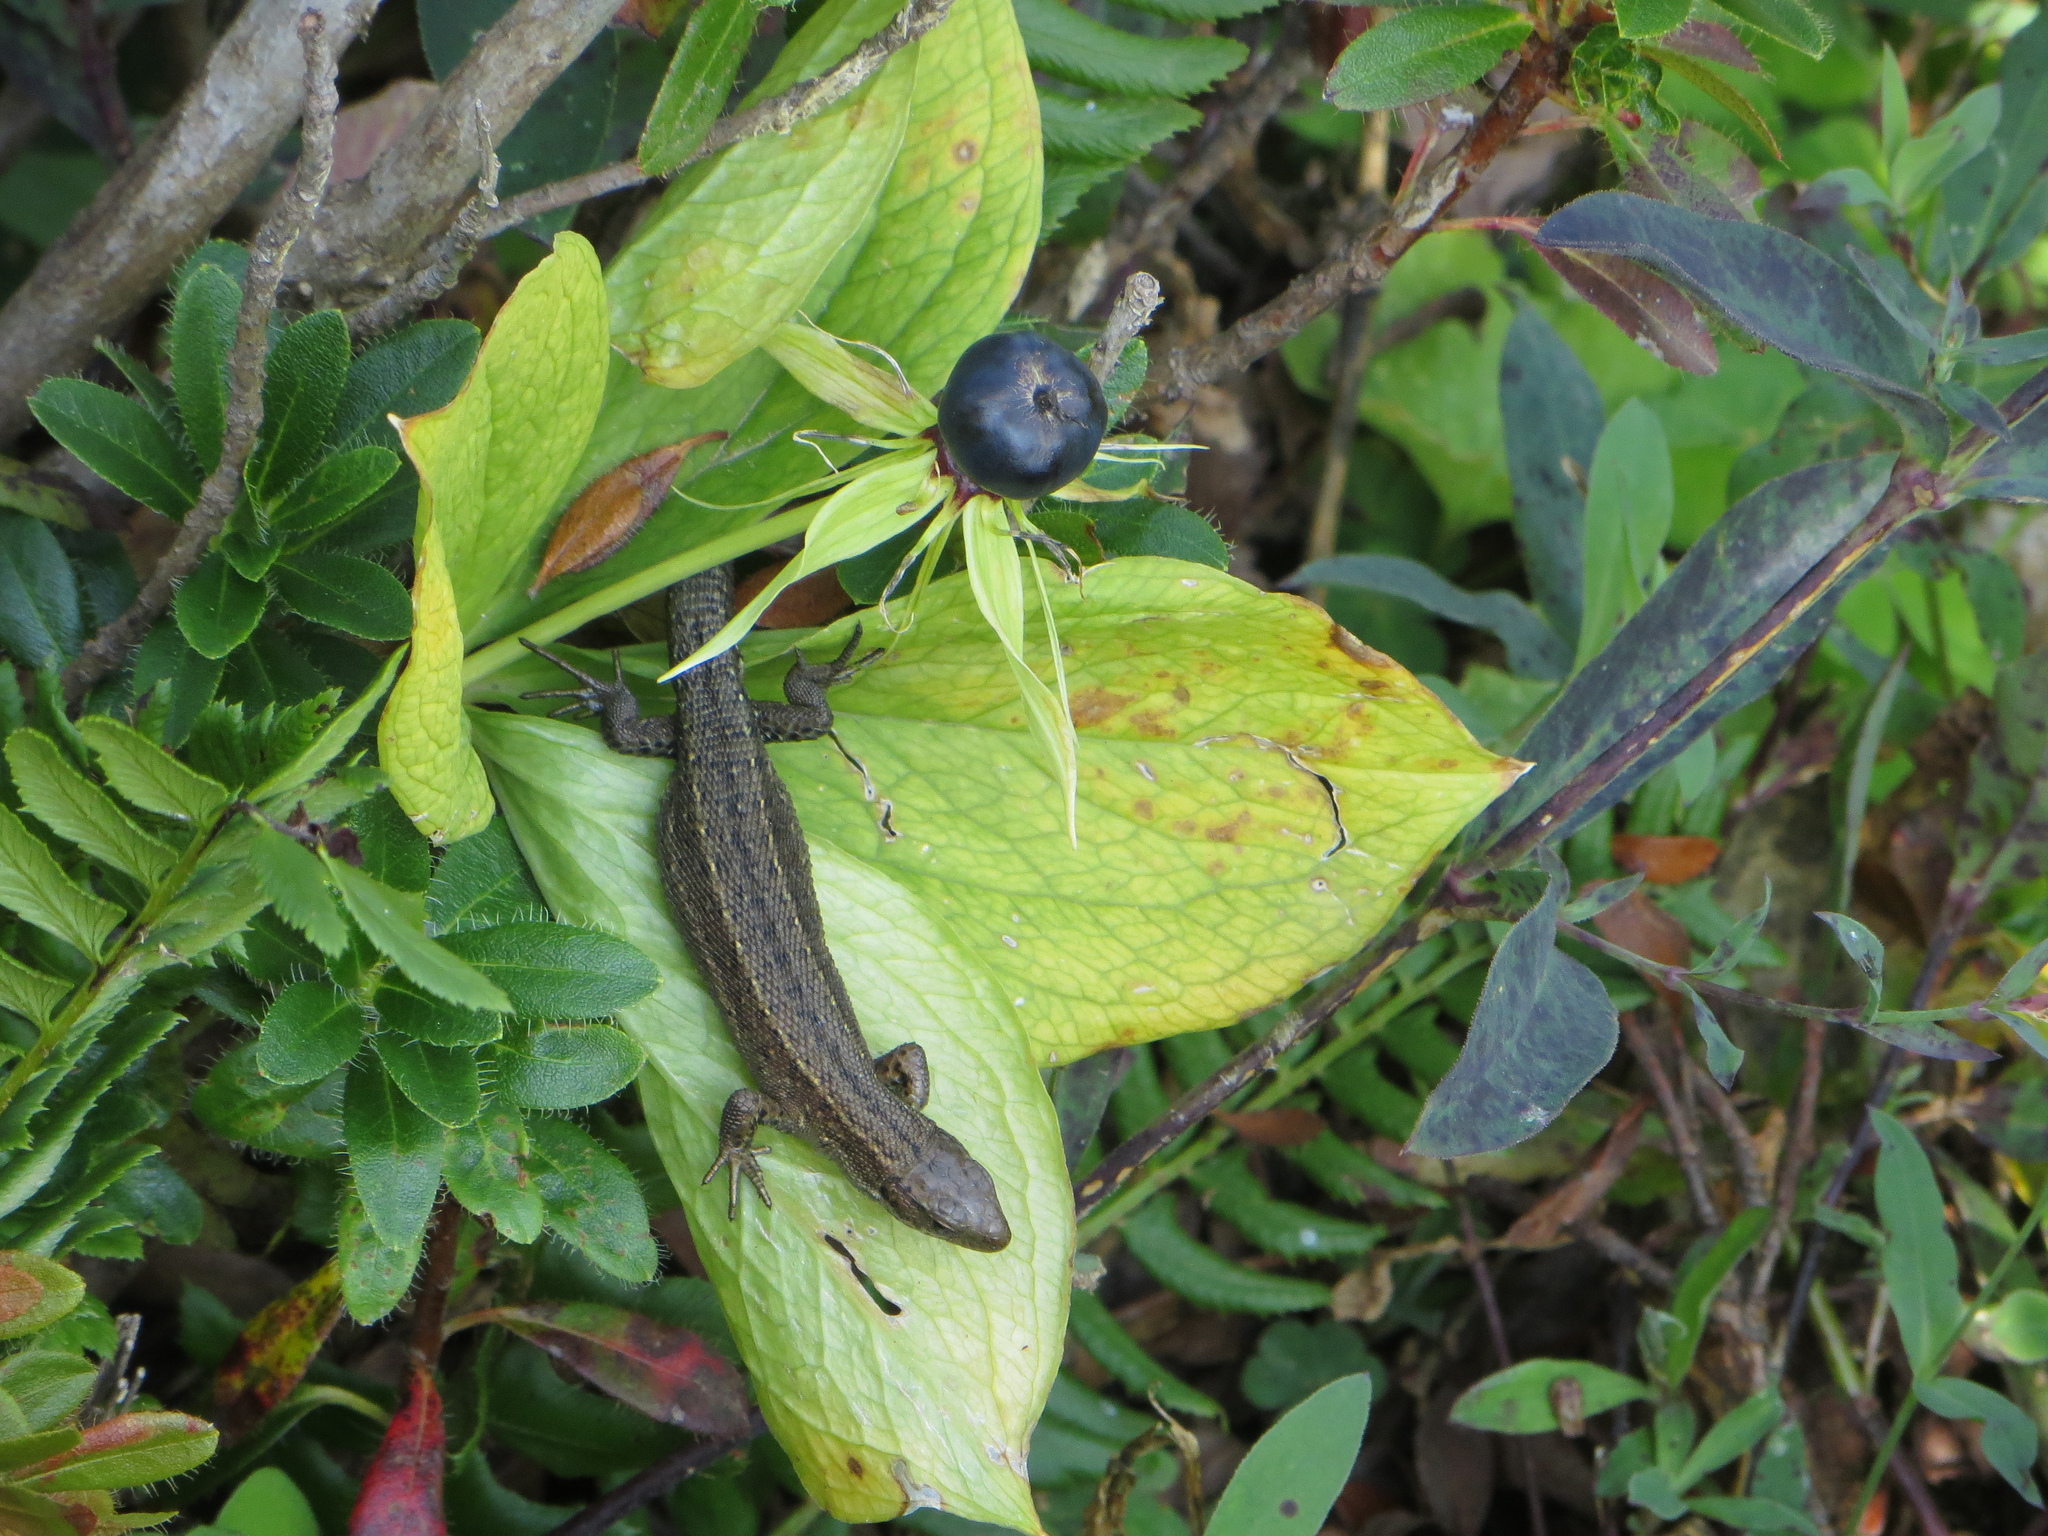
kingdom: Animalia
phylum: Chordata
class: Squamata
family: Lacertidae
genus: Zootoca
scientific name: Zootoca vivipara
